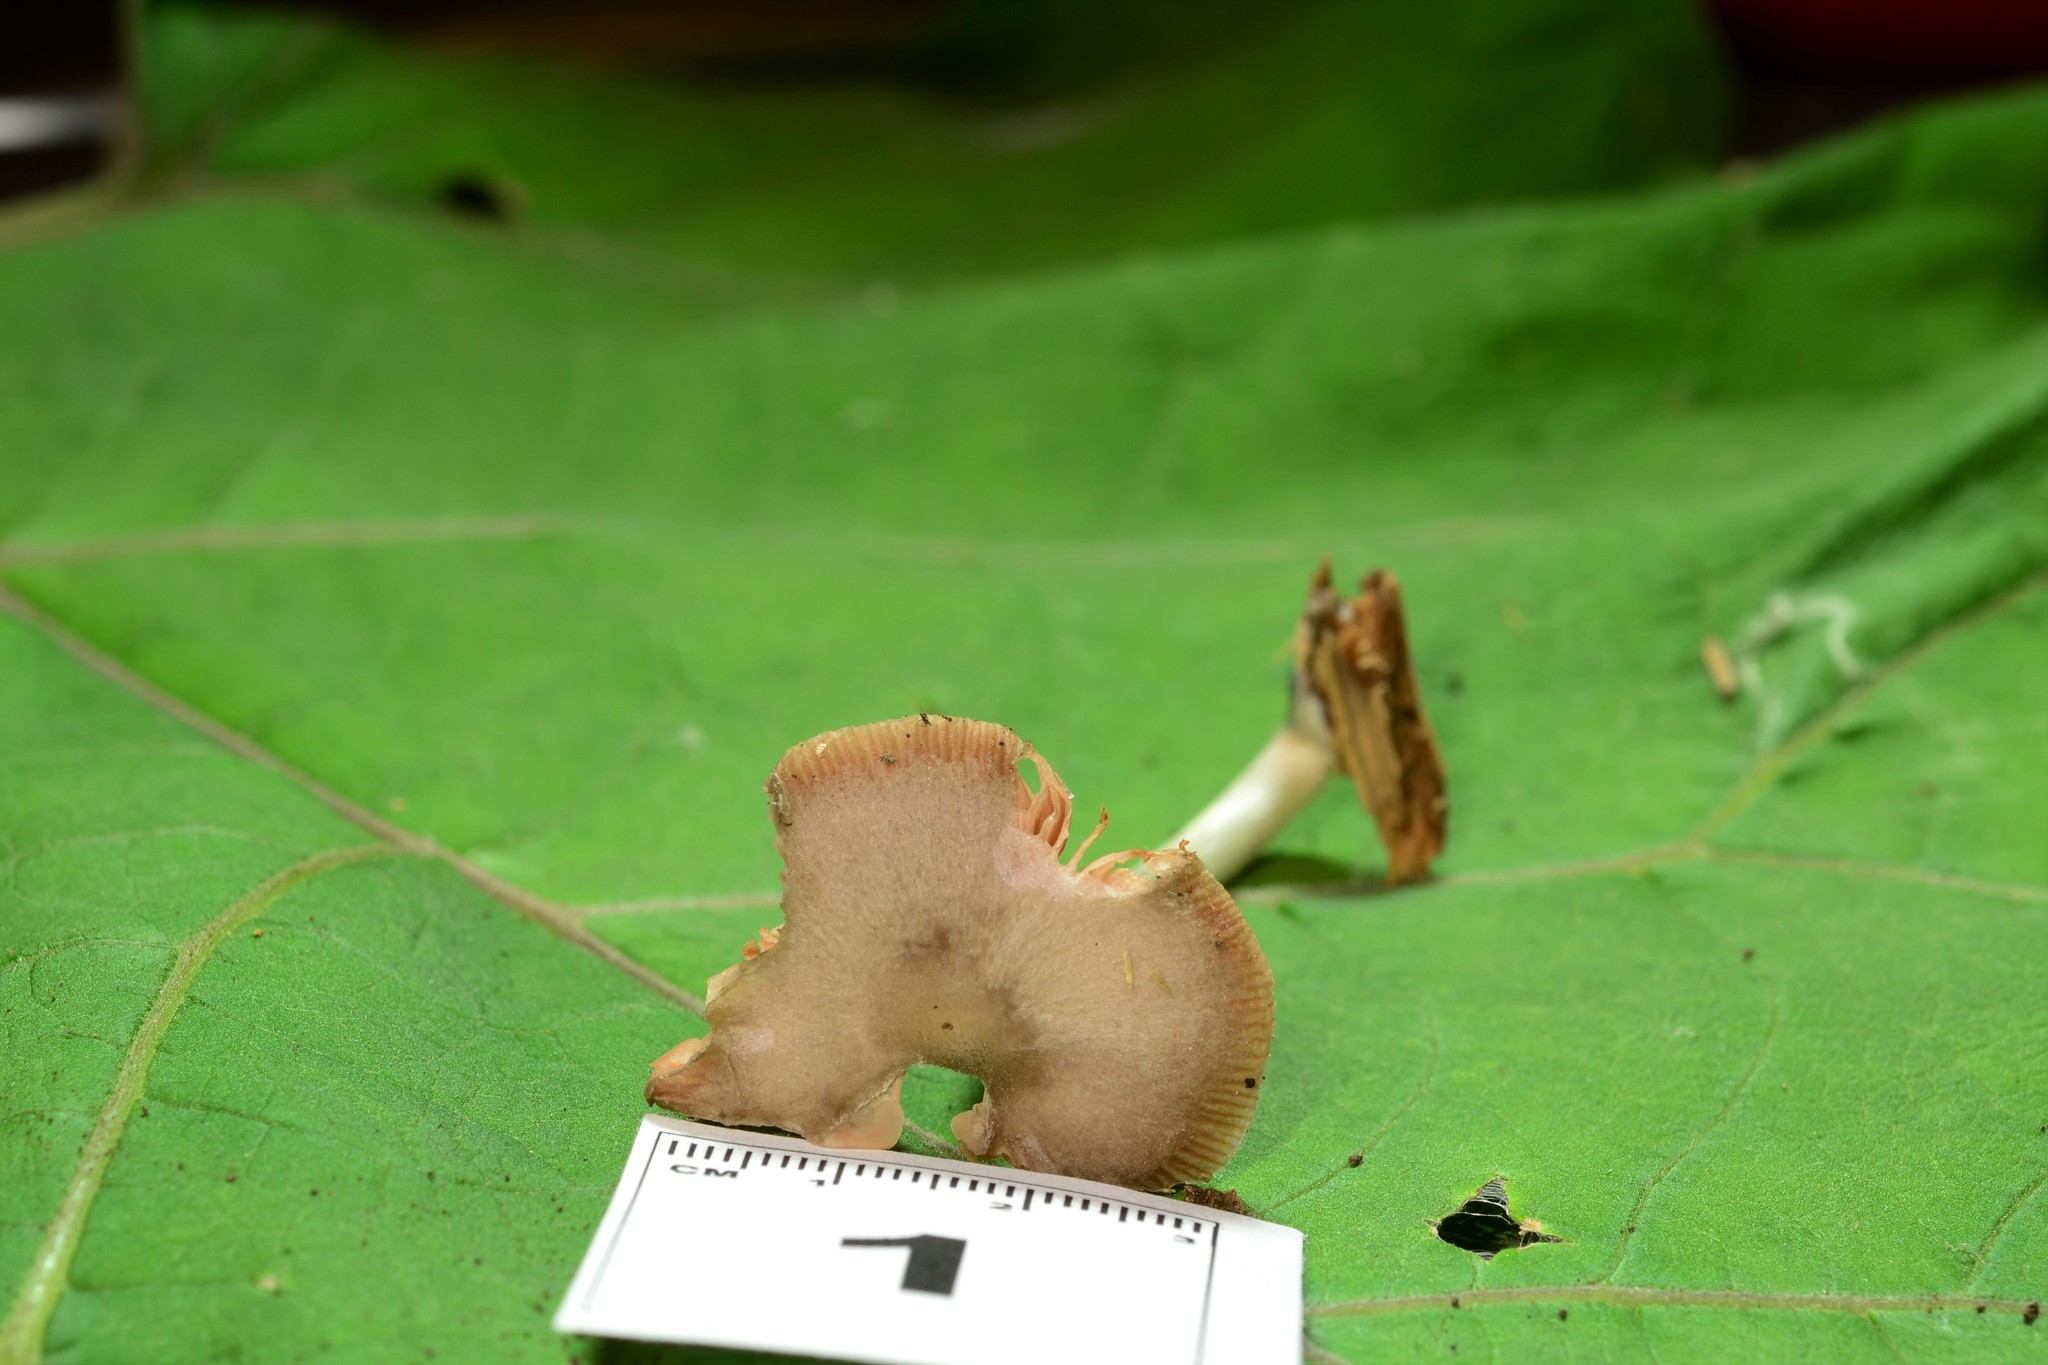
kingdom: Fungi
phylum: Basidiomycota
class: Agaricomycetes
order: Agaricales
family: Pluteaceae
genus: Pluteus
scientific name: Pluteus saupei
